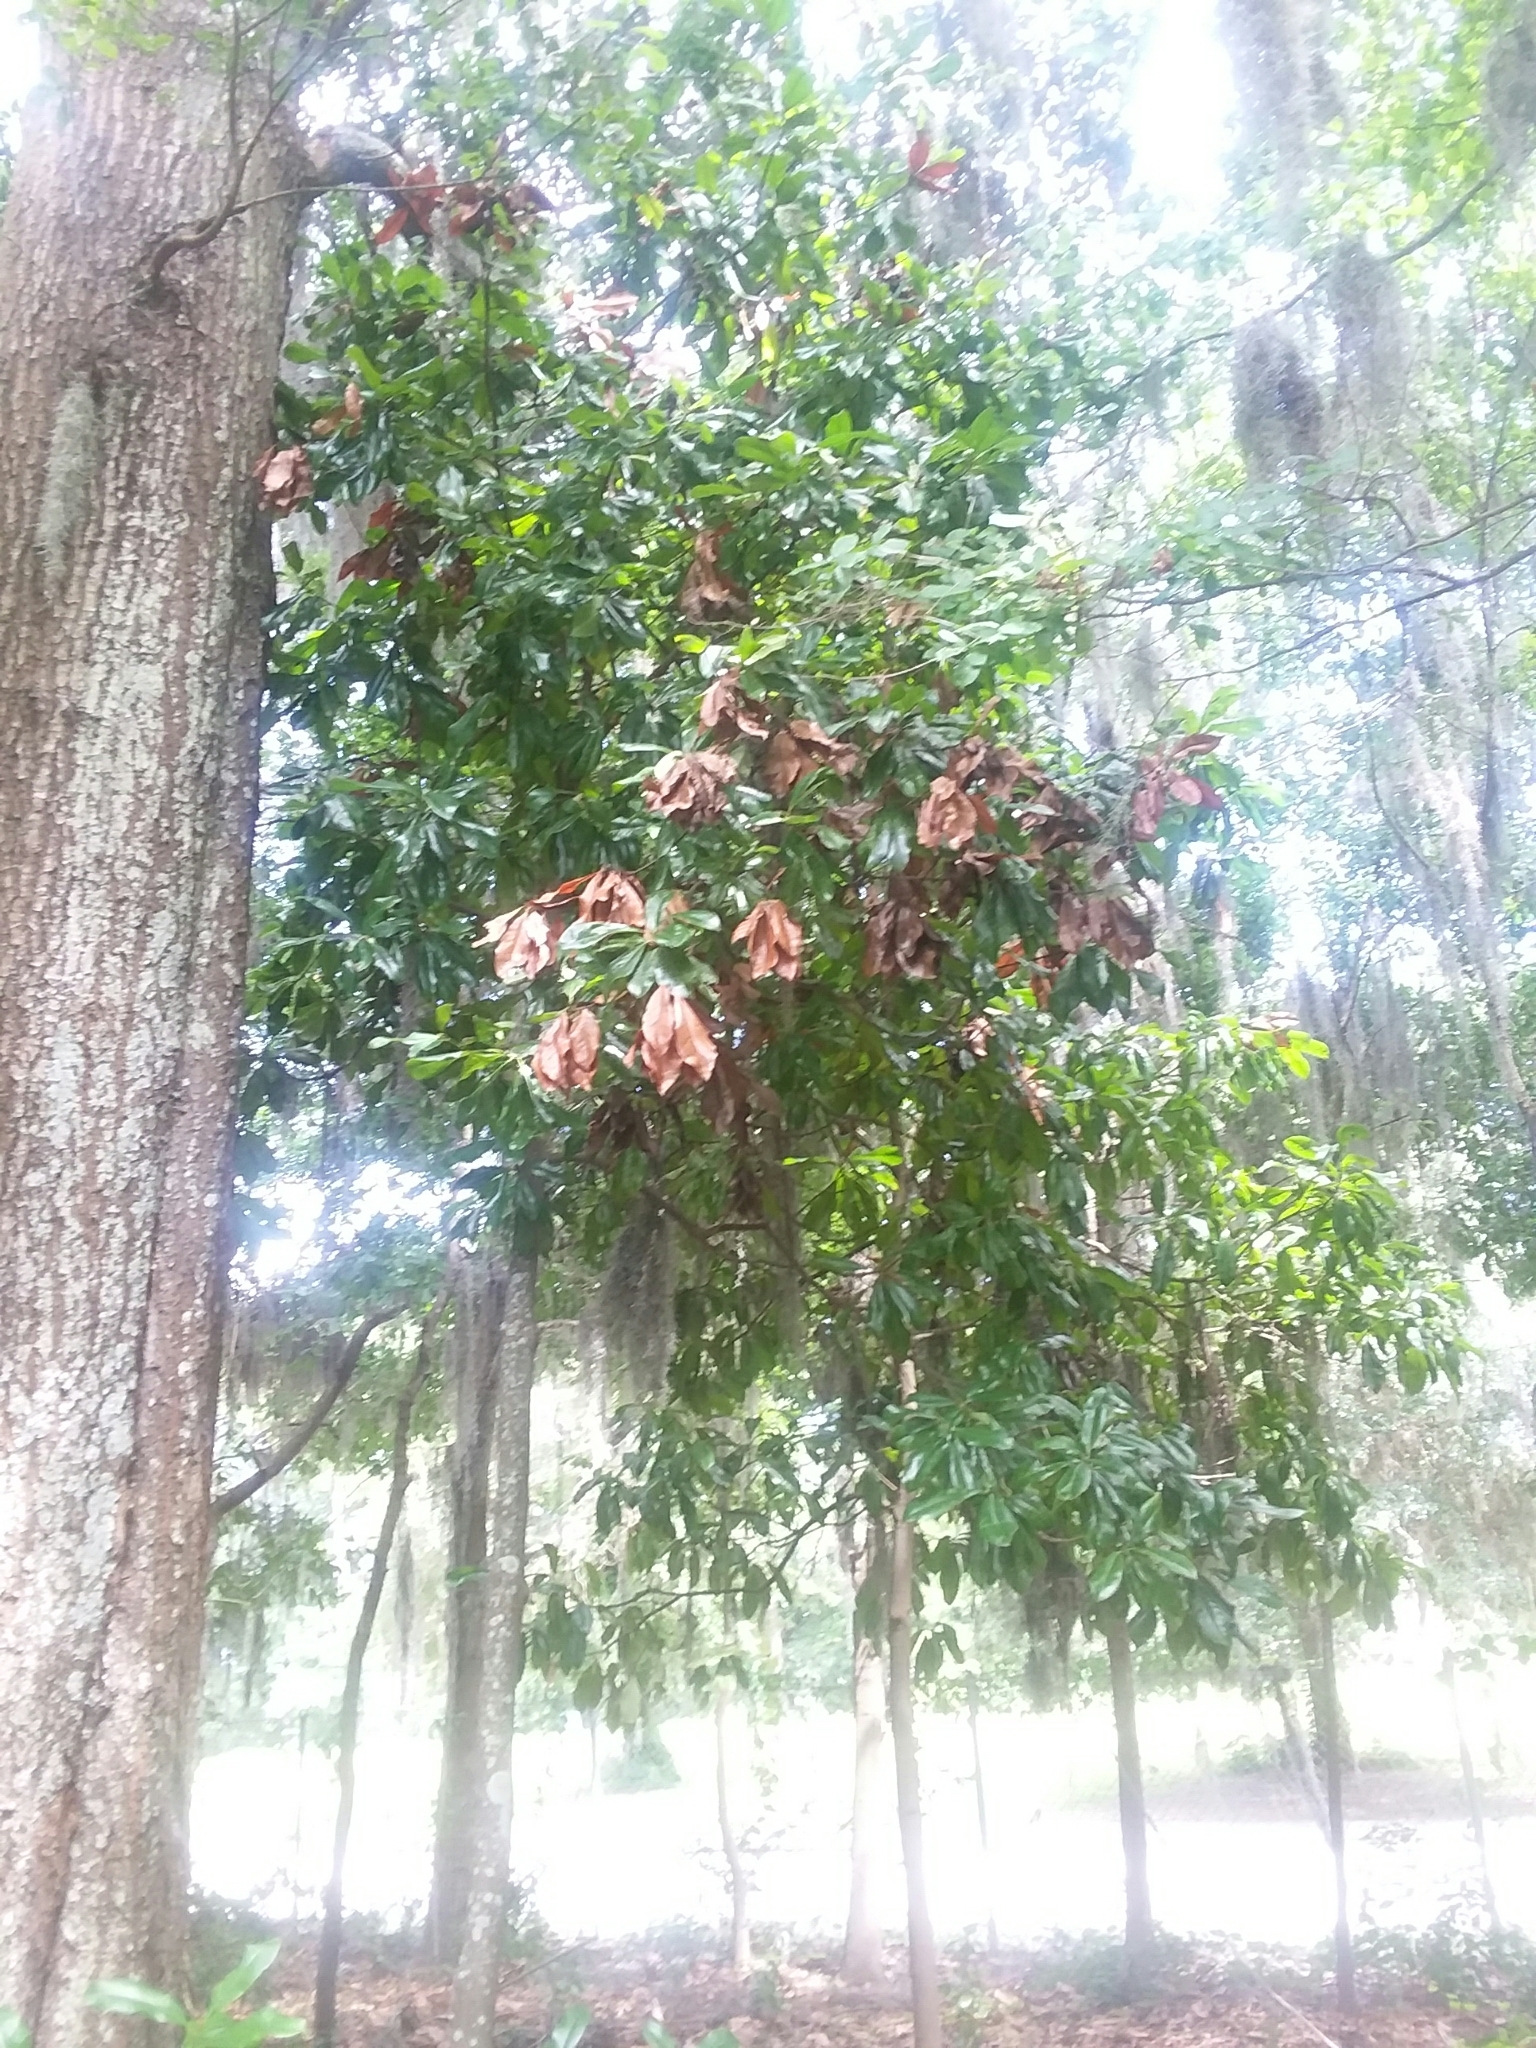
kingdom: Plantae
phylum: Tracheophyta
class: Magnoliopsida
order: Magnoliales
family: Magnoliaceae
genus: Magnolia
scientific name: Magnolia grandiflora
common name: Southern magnolia
